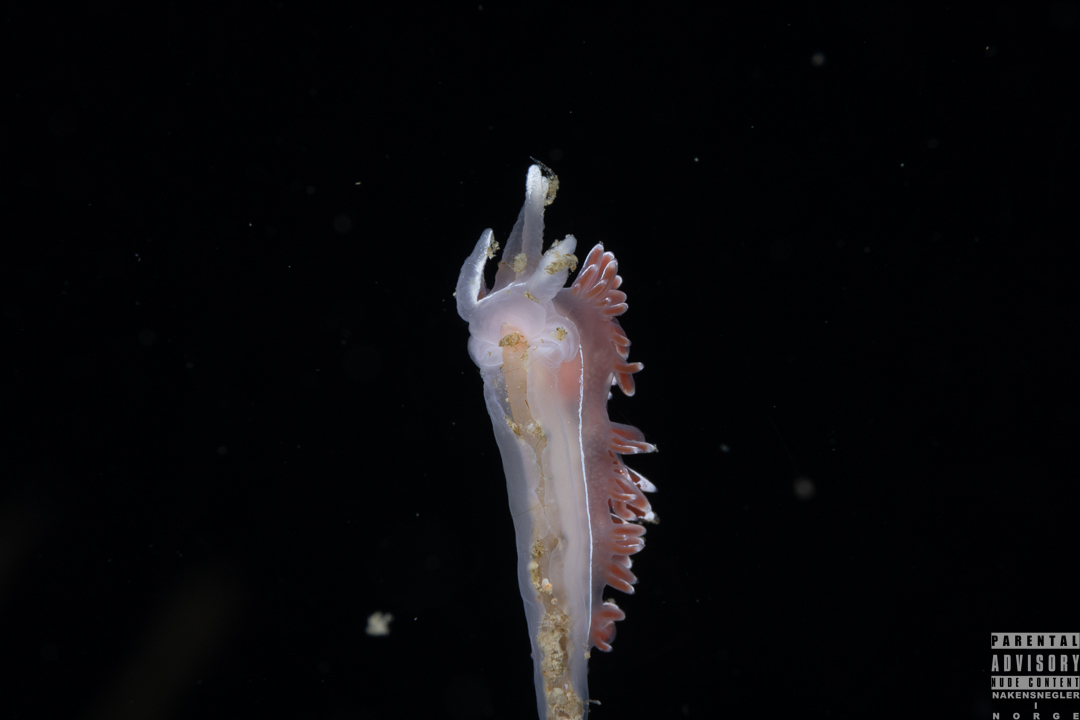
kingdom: Animalia
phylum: Mollusca
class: Gastropoda
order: Nudibranchia
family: Coryphellidae
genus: Coryphella
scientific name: Coryphella lineata
